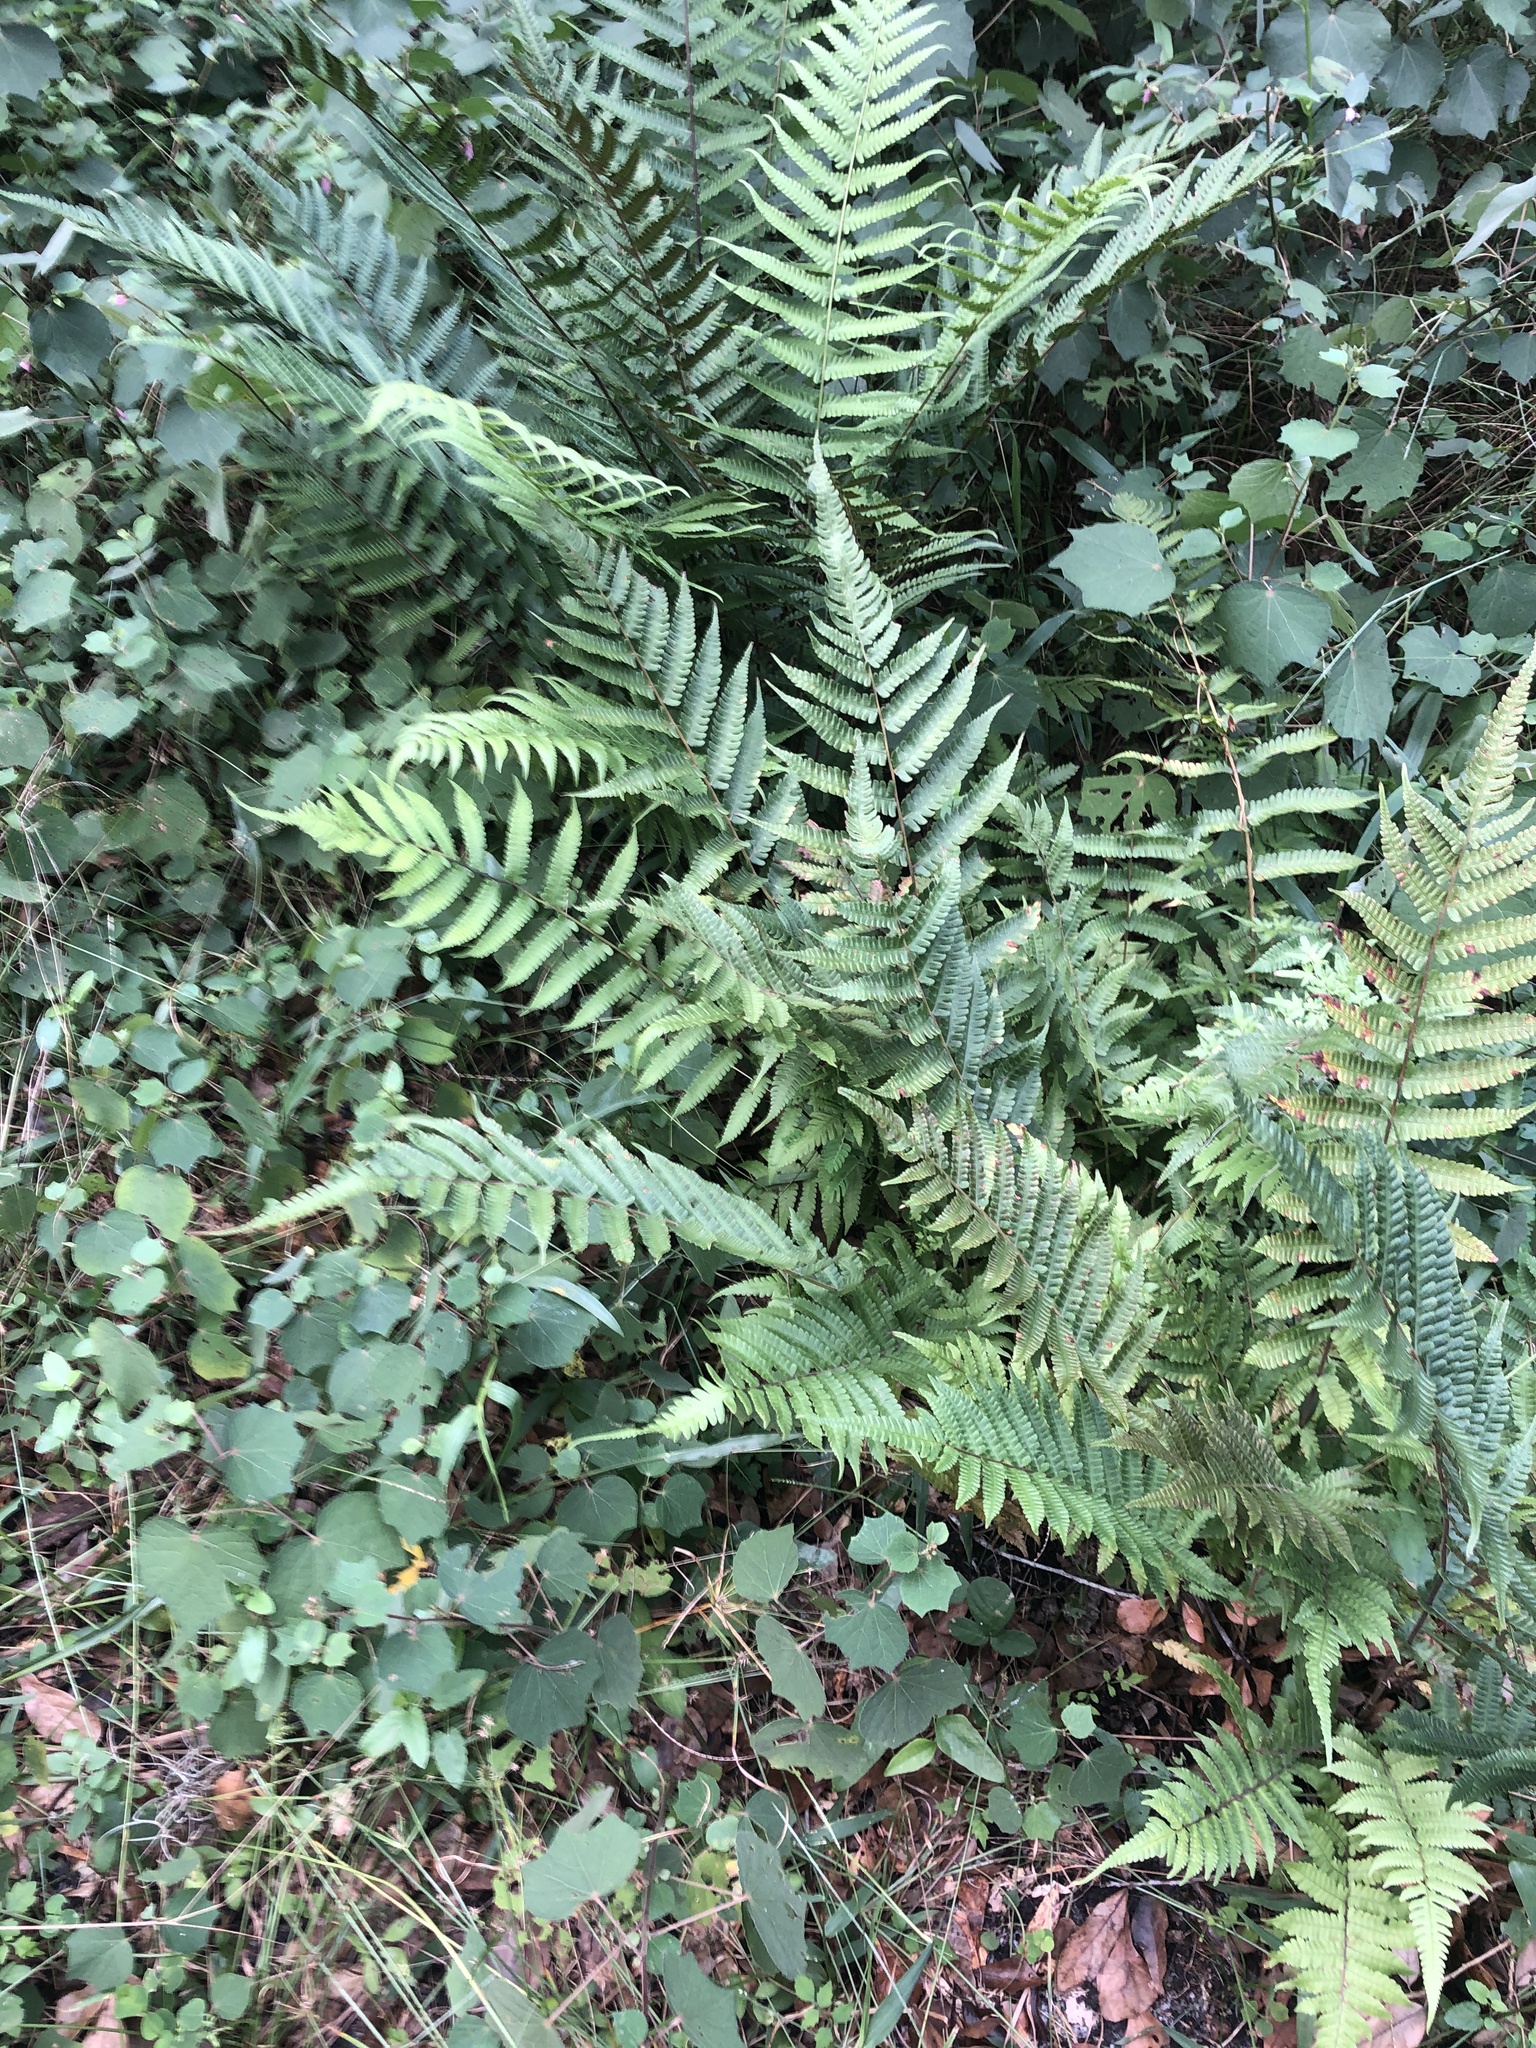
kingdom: Plantae
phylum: Tracheophyta
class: Polypodiopsida
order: Polypodiales
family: Thelypteridaceae
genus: Christella
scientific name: Christella dentata
